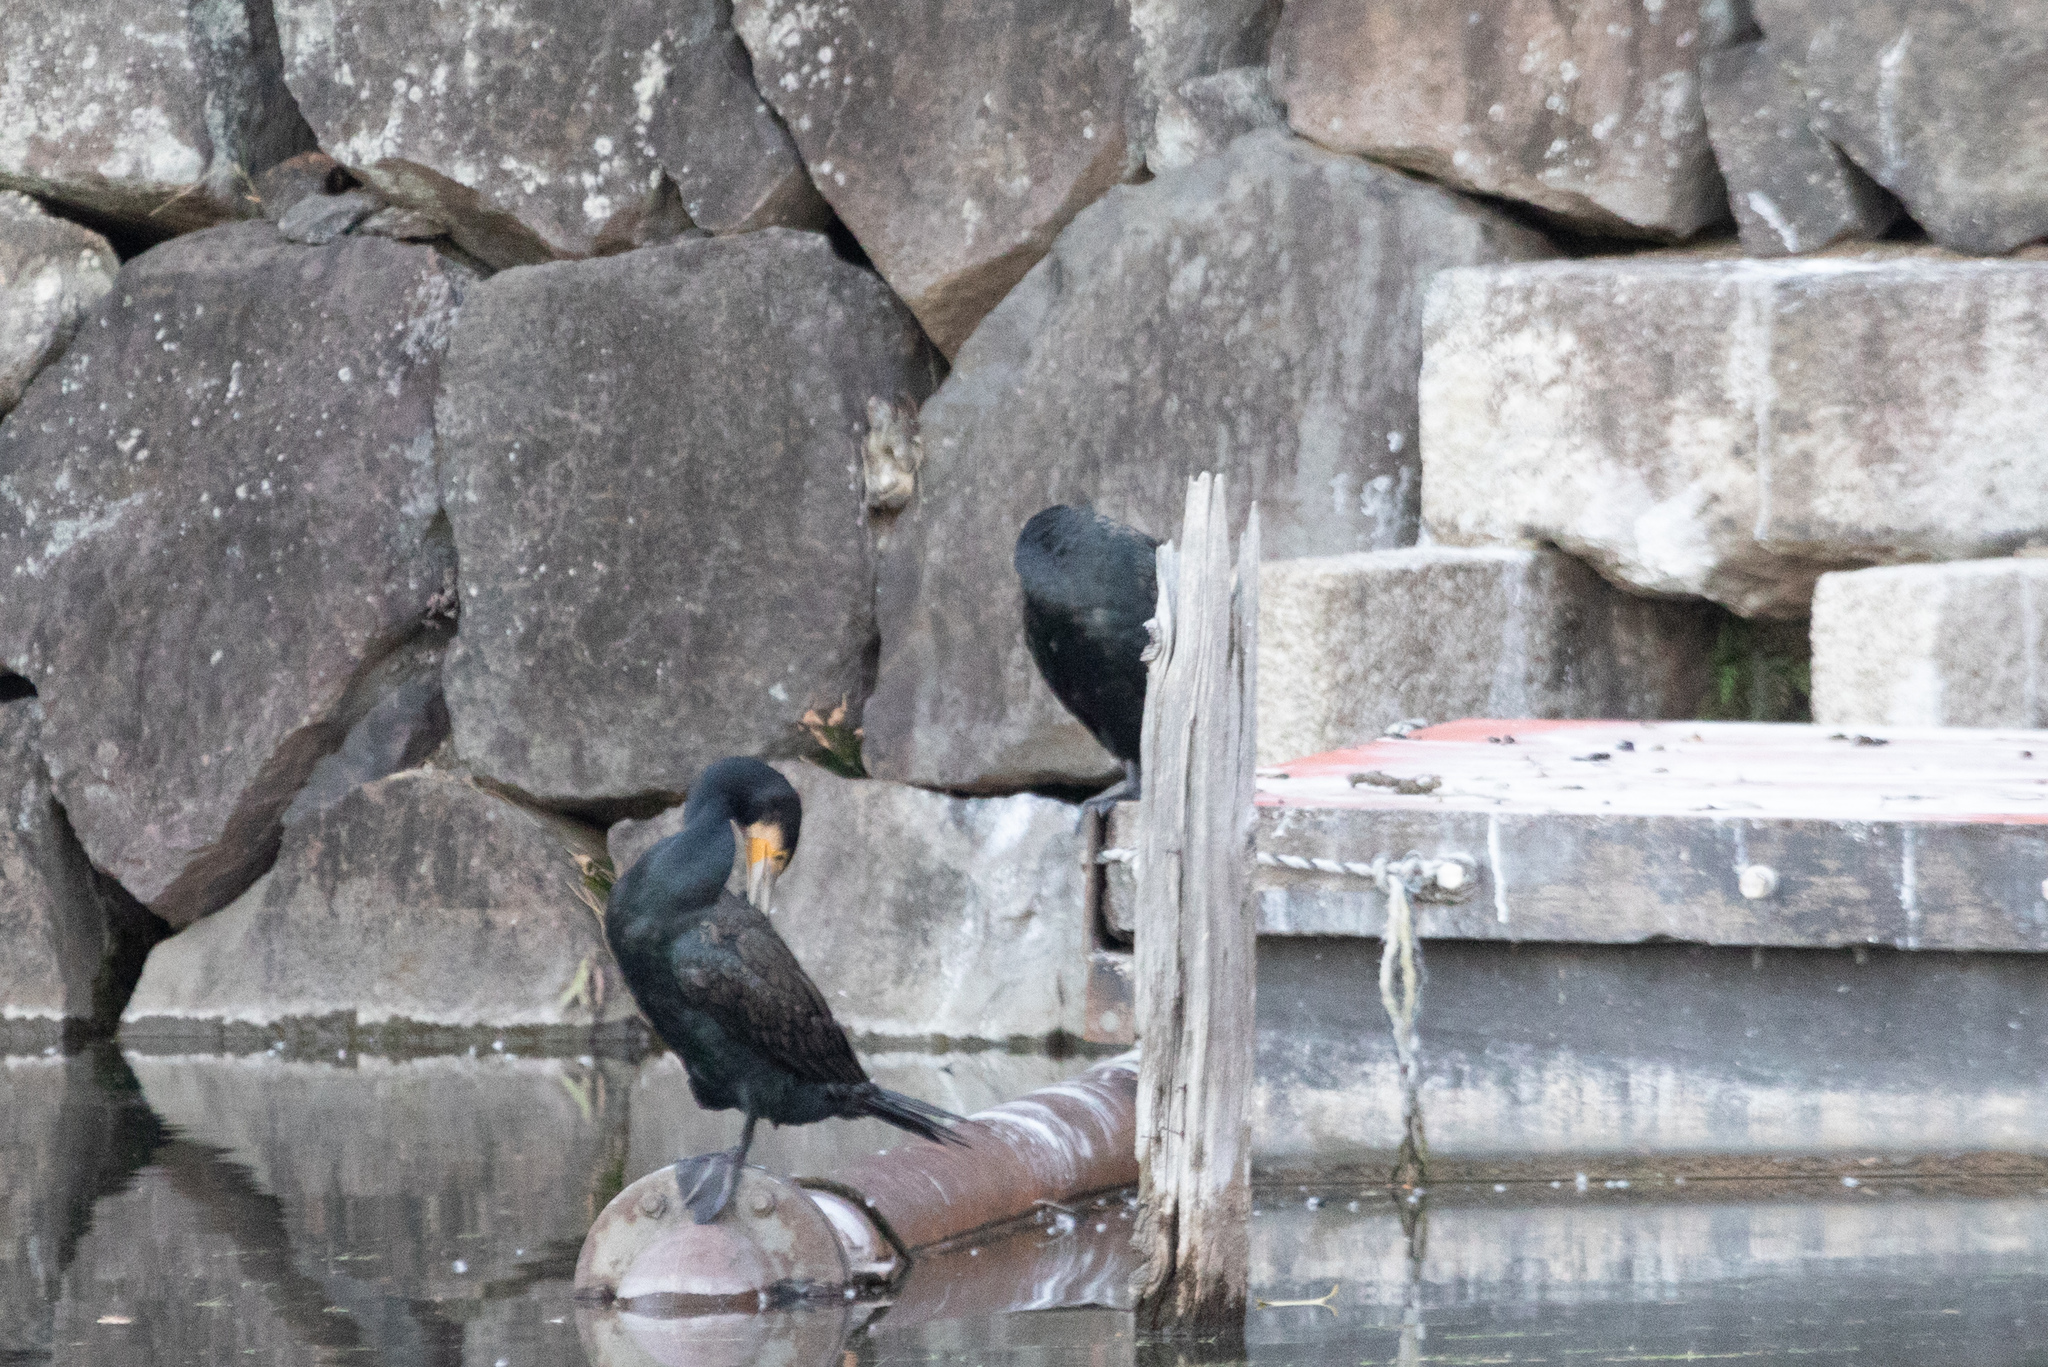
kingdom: Animalia
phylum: Chordata
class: Aves
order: Suliformes
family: Phalacrocoracidae
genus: Phalacrocorax
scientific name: Phalacrocorax carbo
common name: Great cormorant
